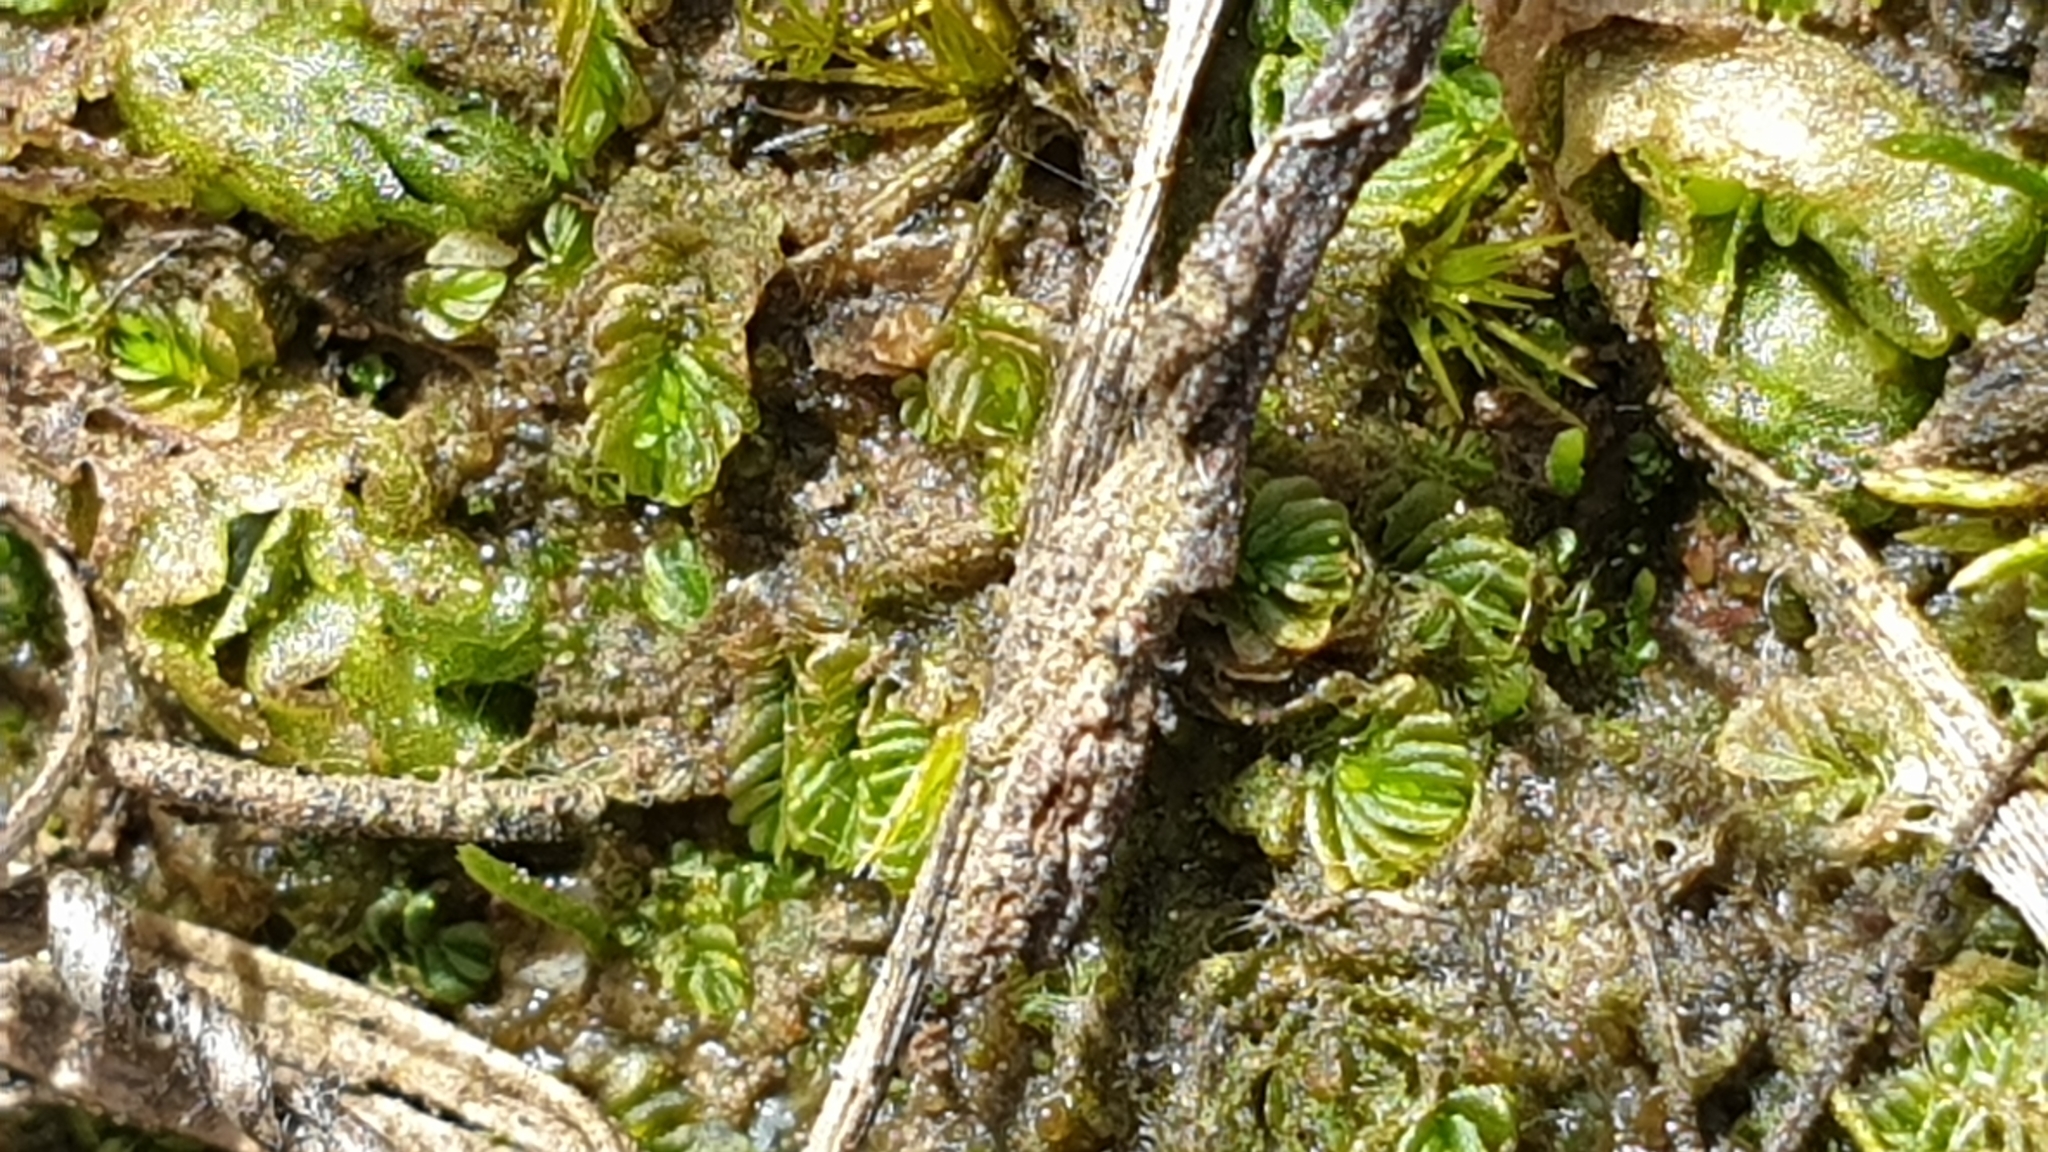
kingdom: Plantae
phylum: Marchantiophyta
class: Jungermanniopsida
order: Jungermanniales
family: Acrobolbaceae
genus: Lethocolea
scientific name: Lethocolea pansa
